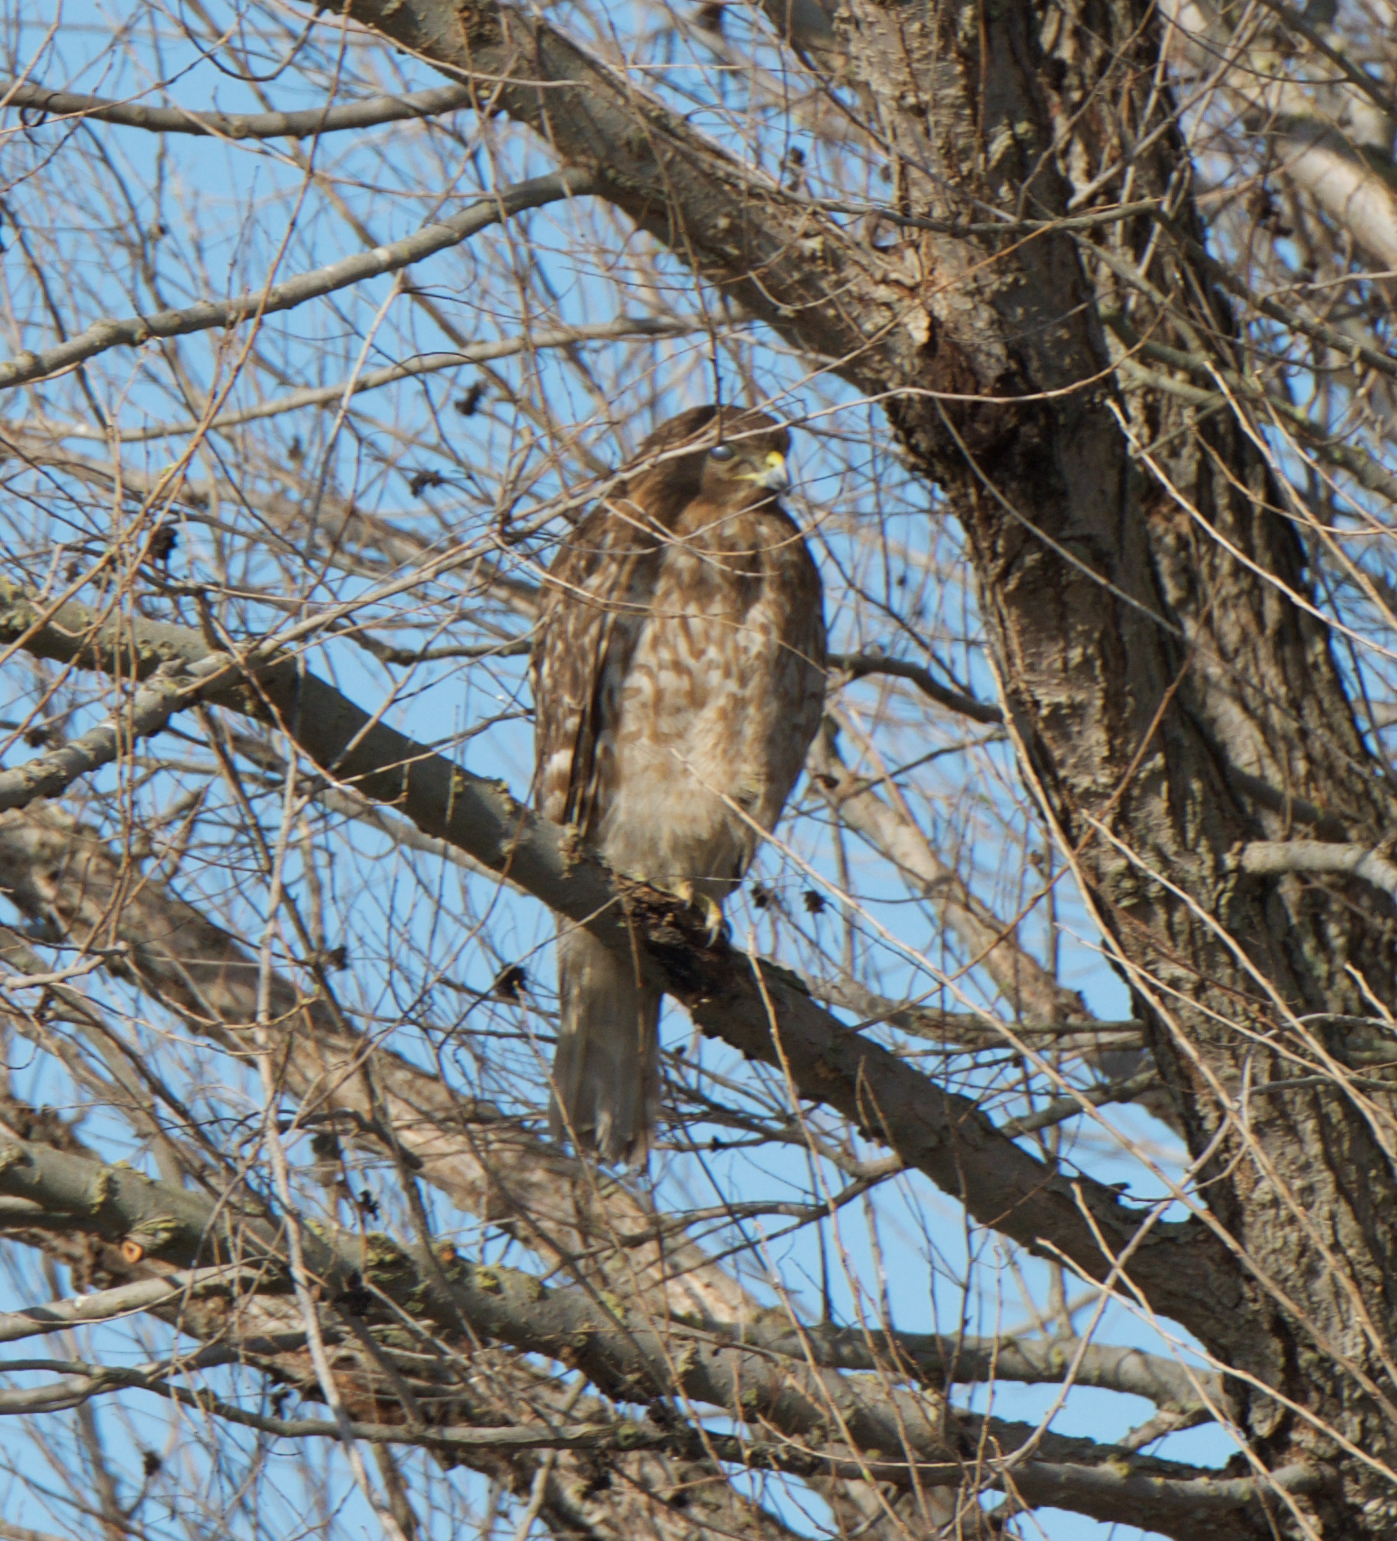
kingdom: Animalia
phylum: Chordata
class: Aves
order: Accipitriformes
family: Accipitridae
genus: Buteo
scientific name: Buteo lineatus
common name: Red-shouldered hawk
